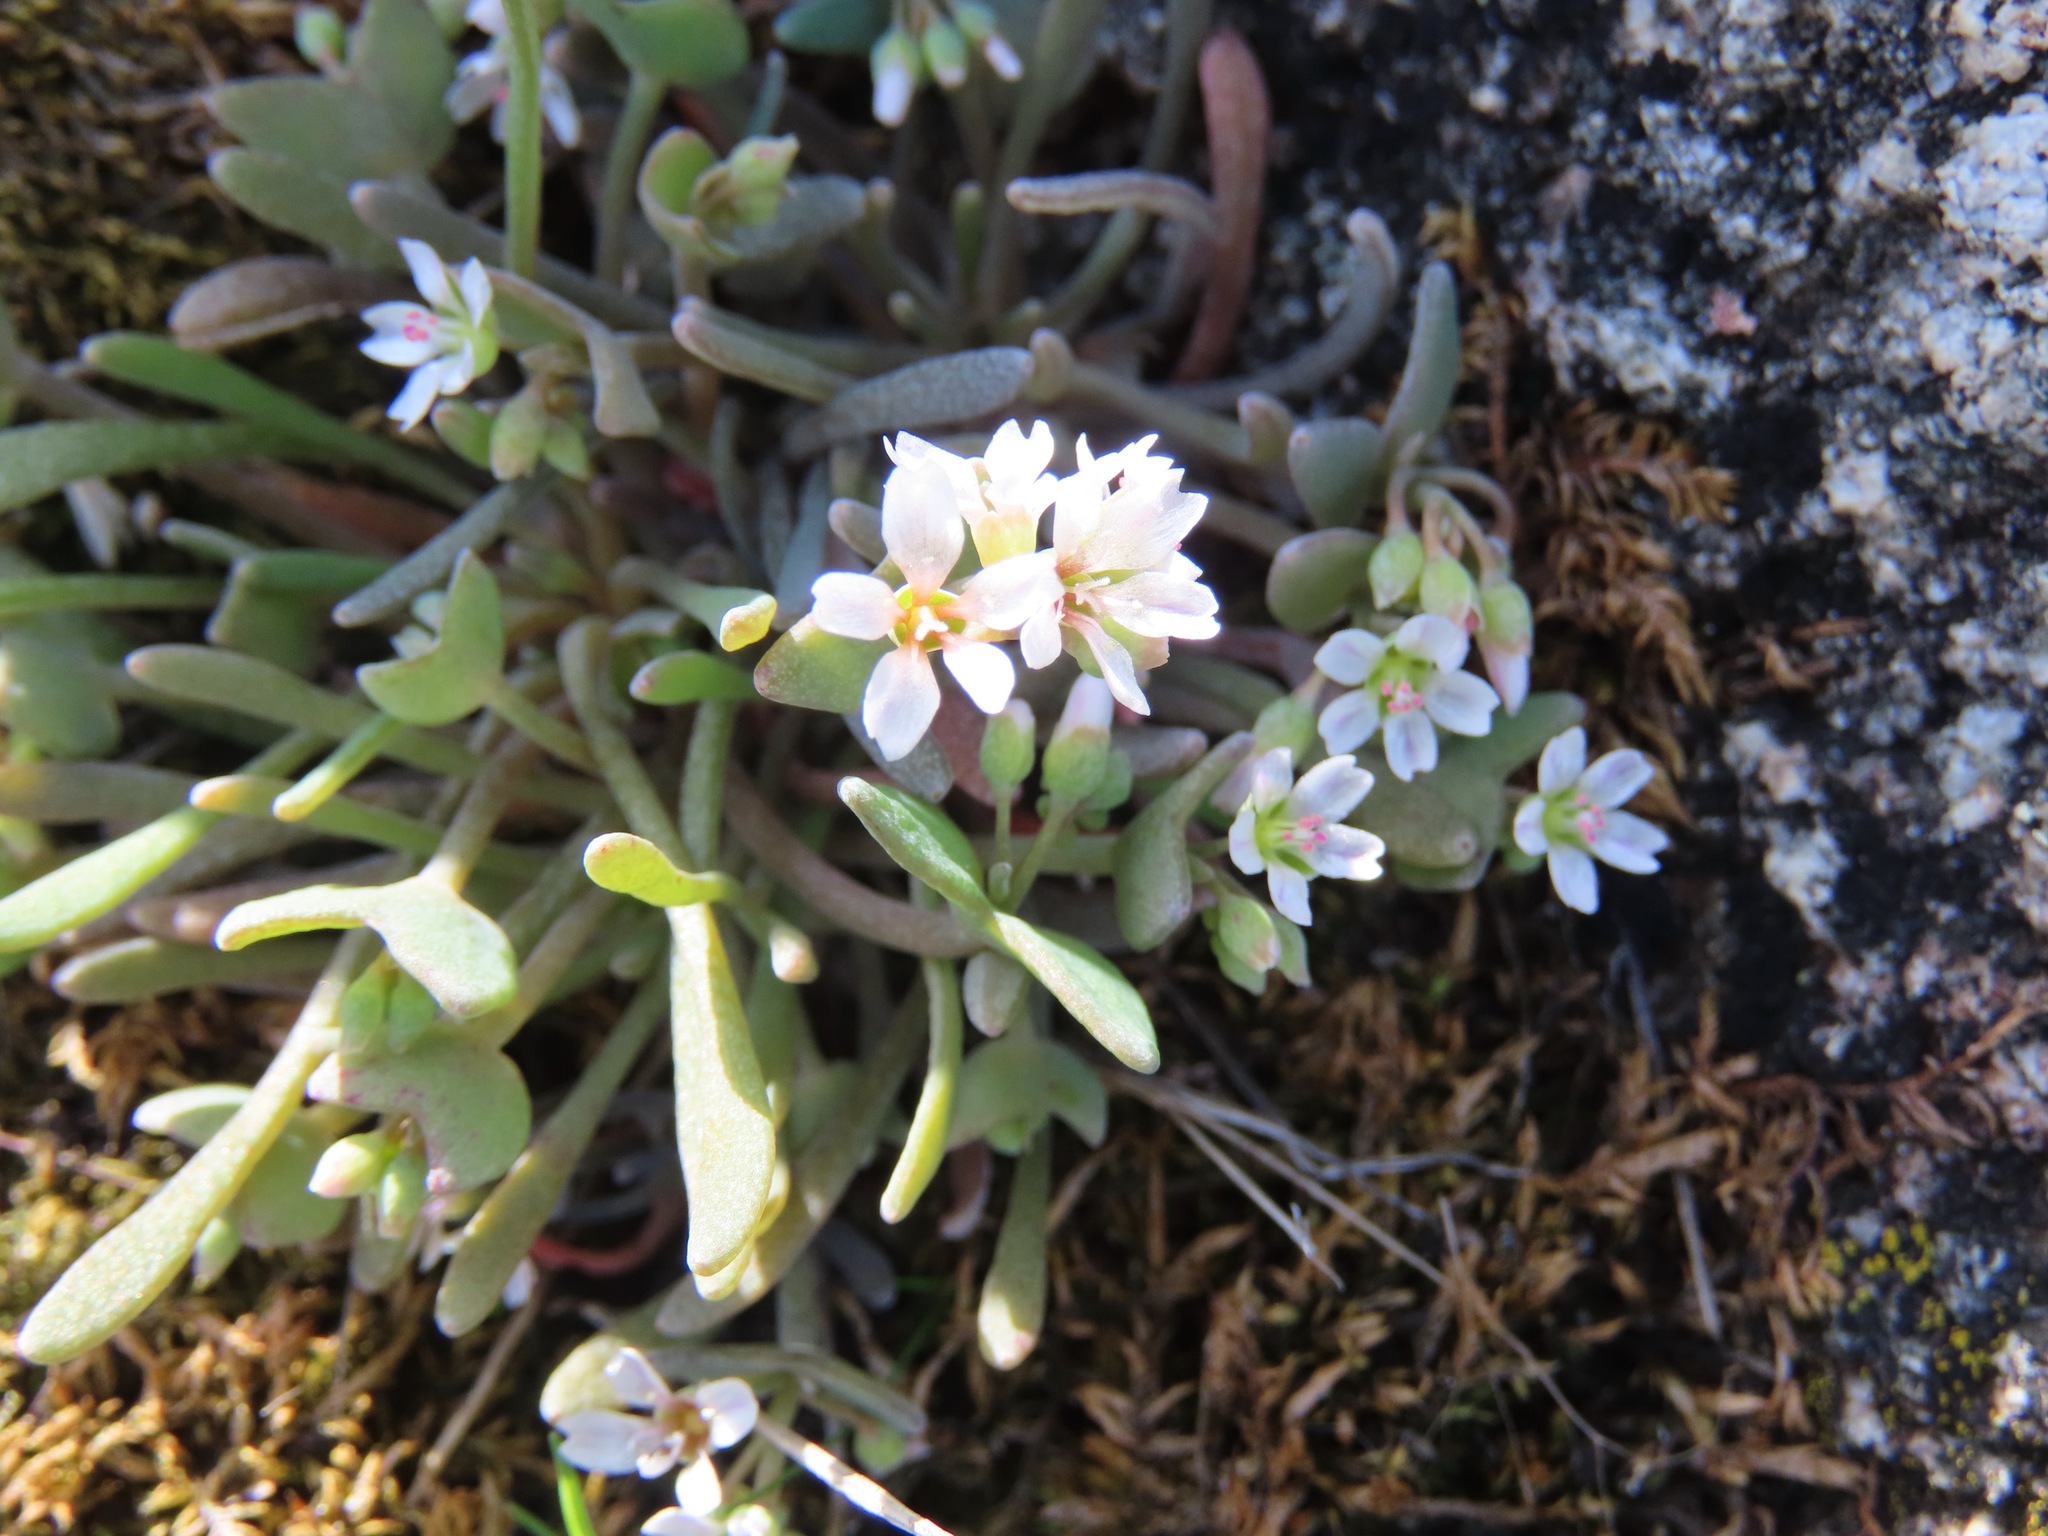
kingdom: Plantae
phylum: Tracheophyta
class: Magnoliopsida
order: Caryophyllales
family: Montiaceae
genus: Claytonia
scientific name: Claytonia exigua
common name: Pale spring beauty
